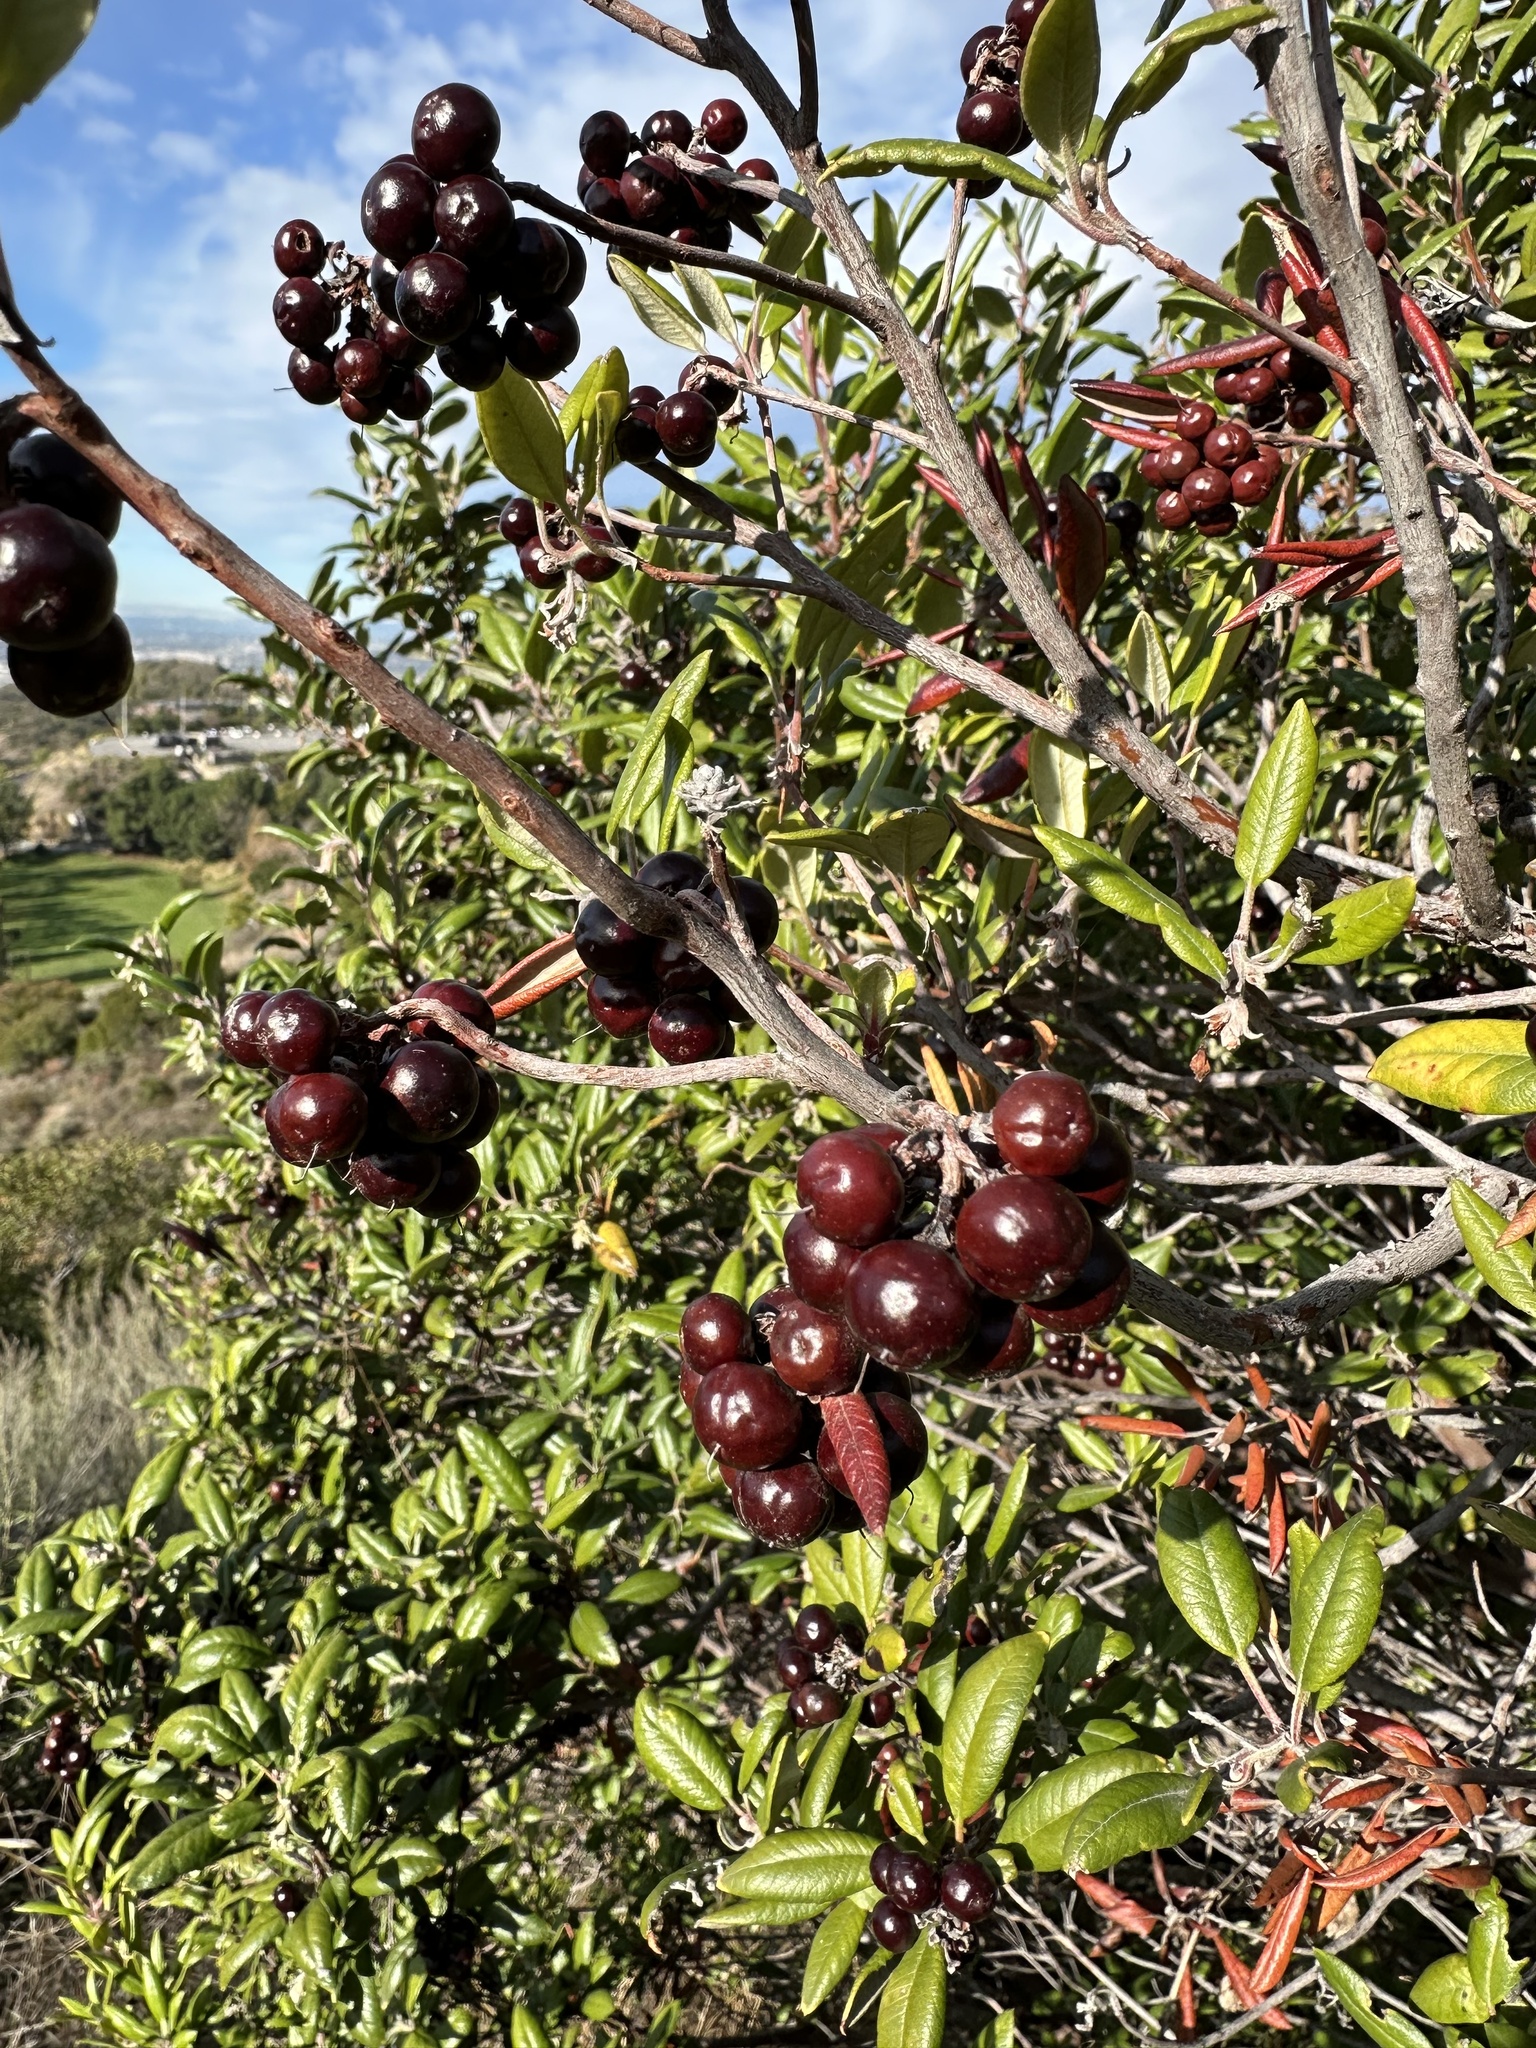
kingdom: Plantae
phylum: Tracheophyta
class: Magnoliopsida
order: Ericales
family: Ericaceae
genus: Arctostaphylos
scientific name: Arctostaphylos bicolor
